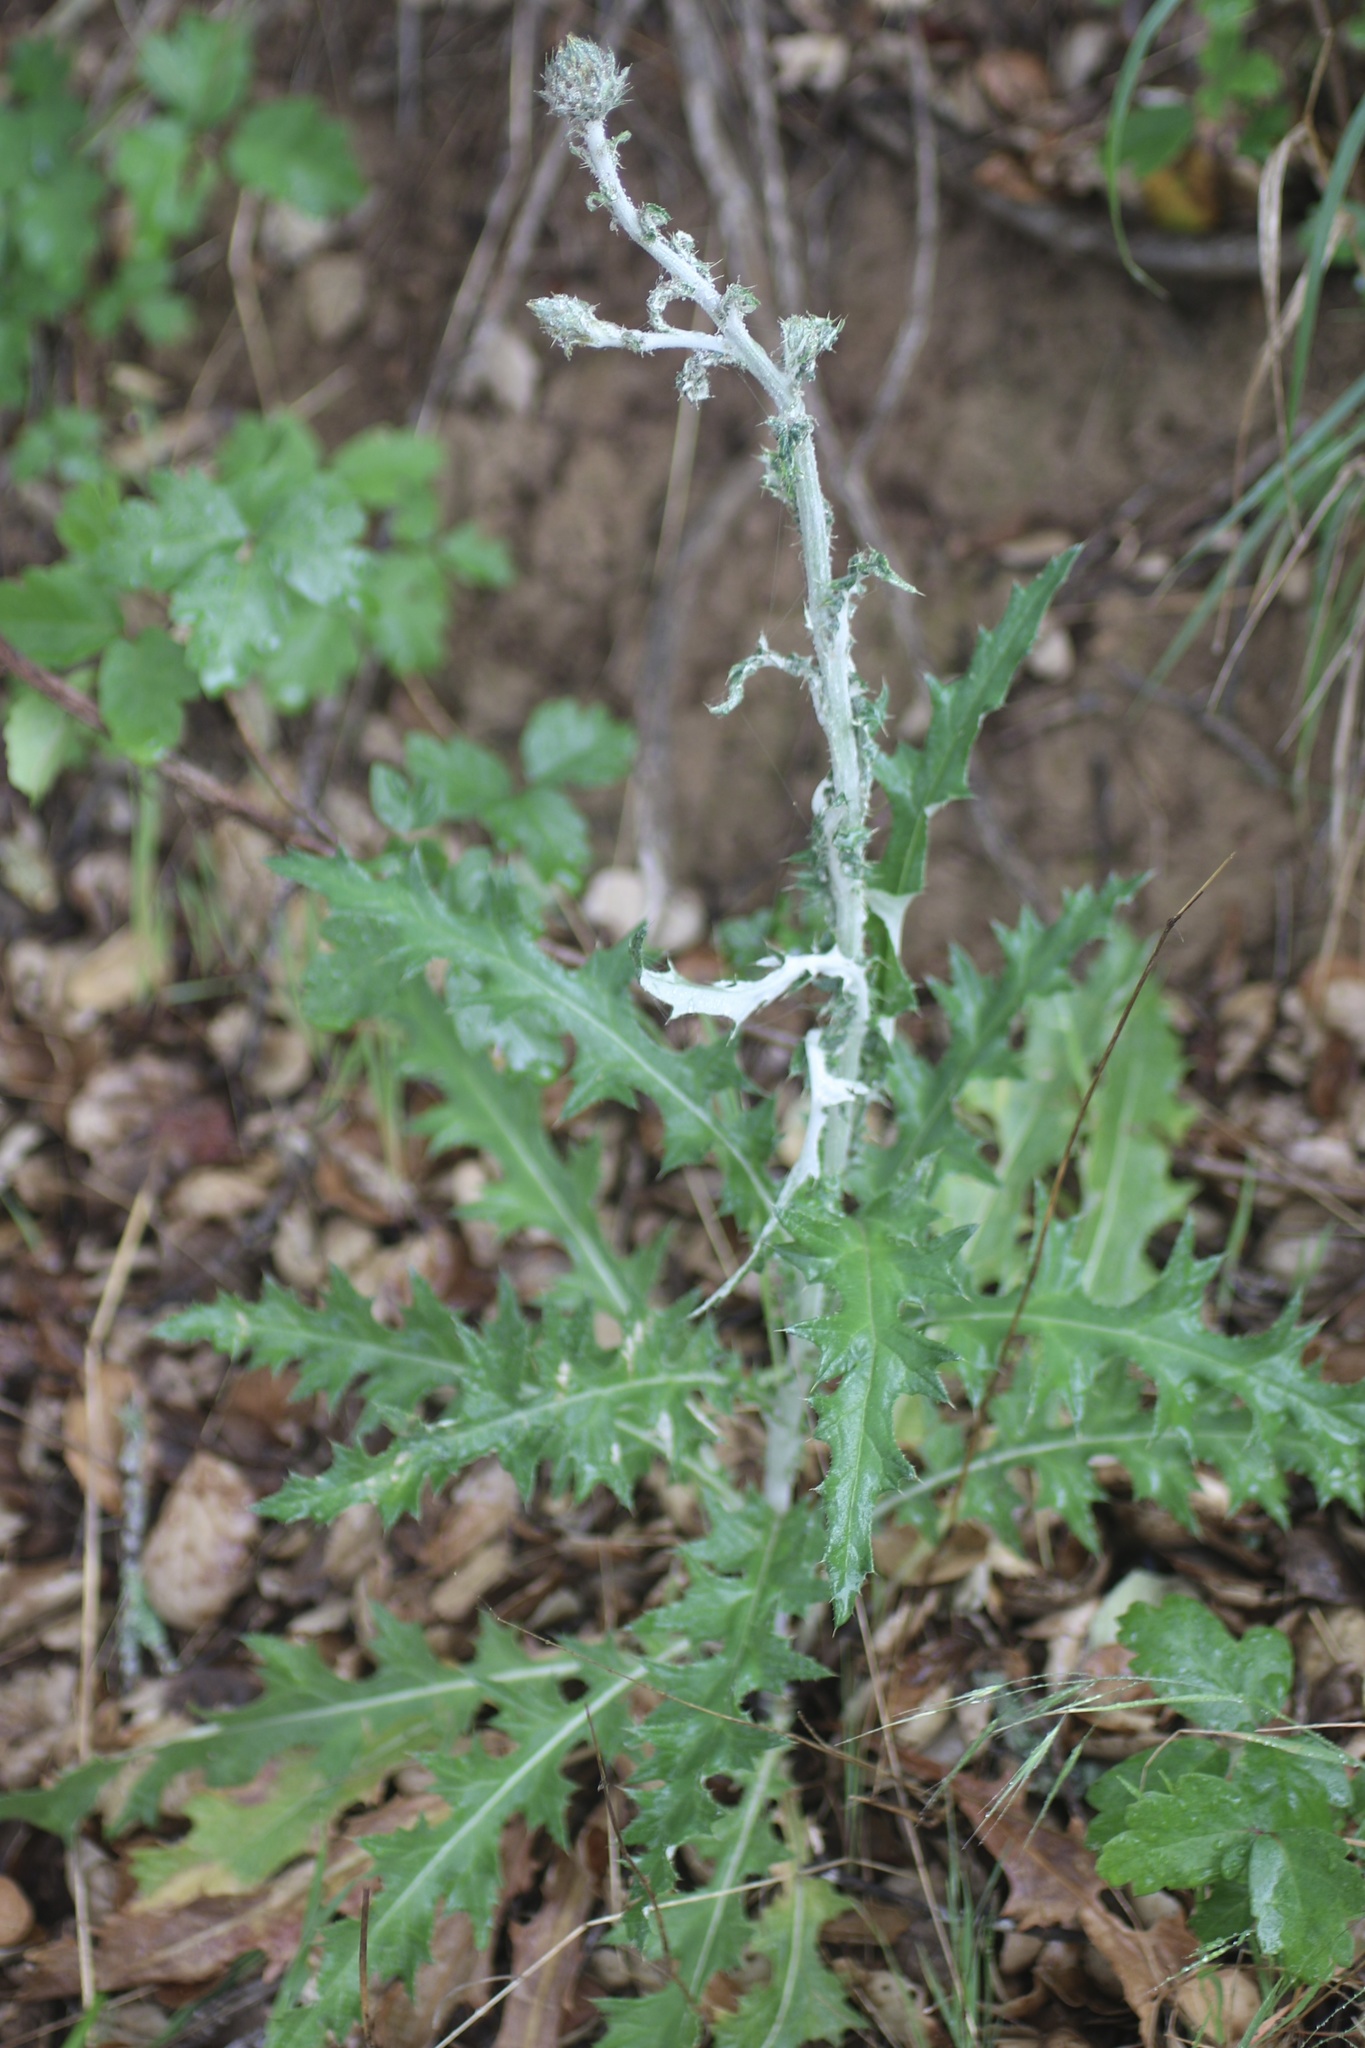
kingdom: Plantae
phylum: Tracheophyta
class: Magnoliopsida
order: Asterales
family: Asteraceae
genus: Cirsium
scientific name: Cirsium occidentale
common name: Western thistle
